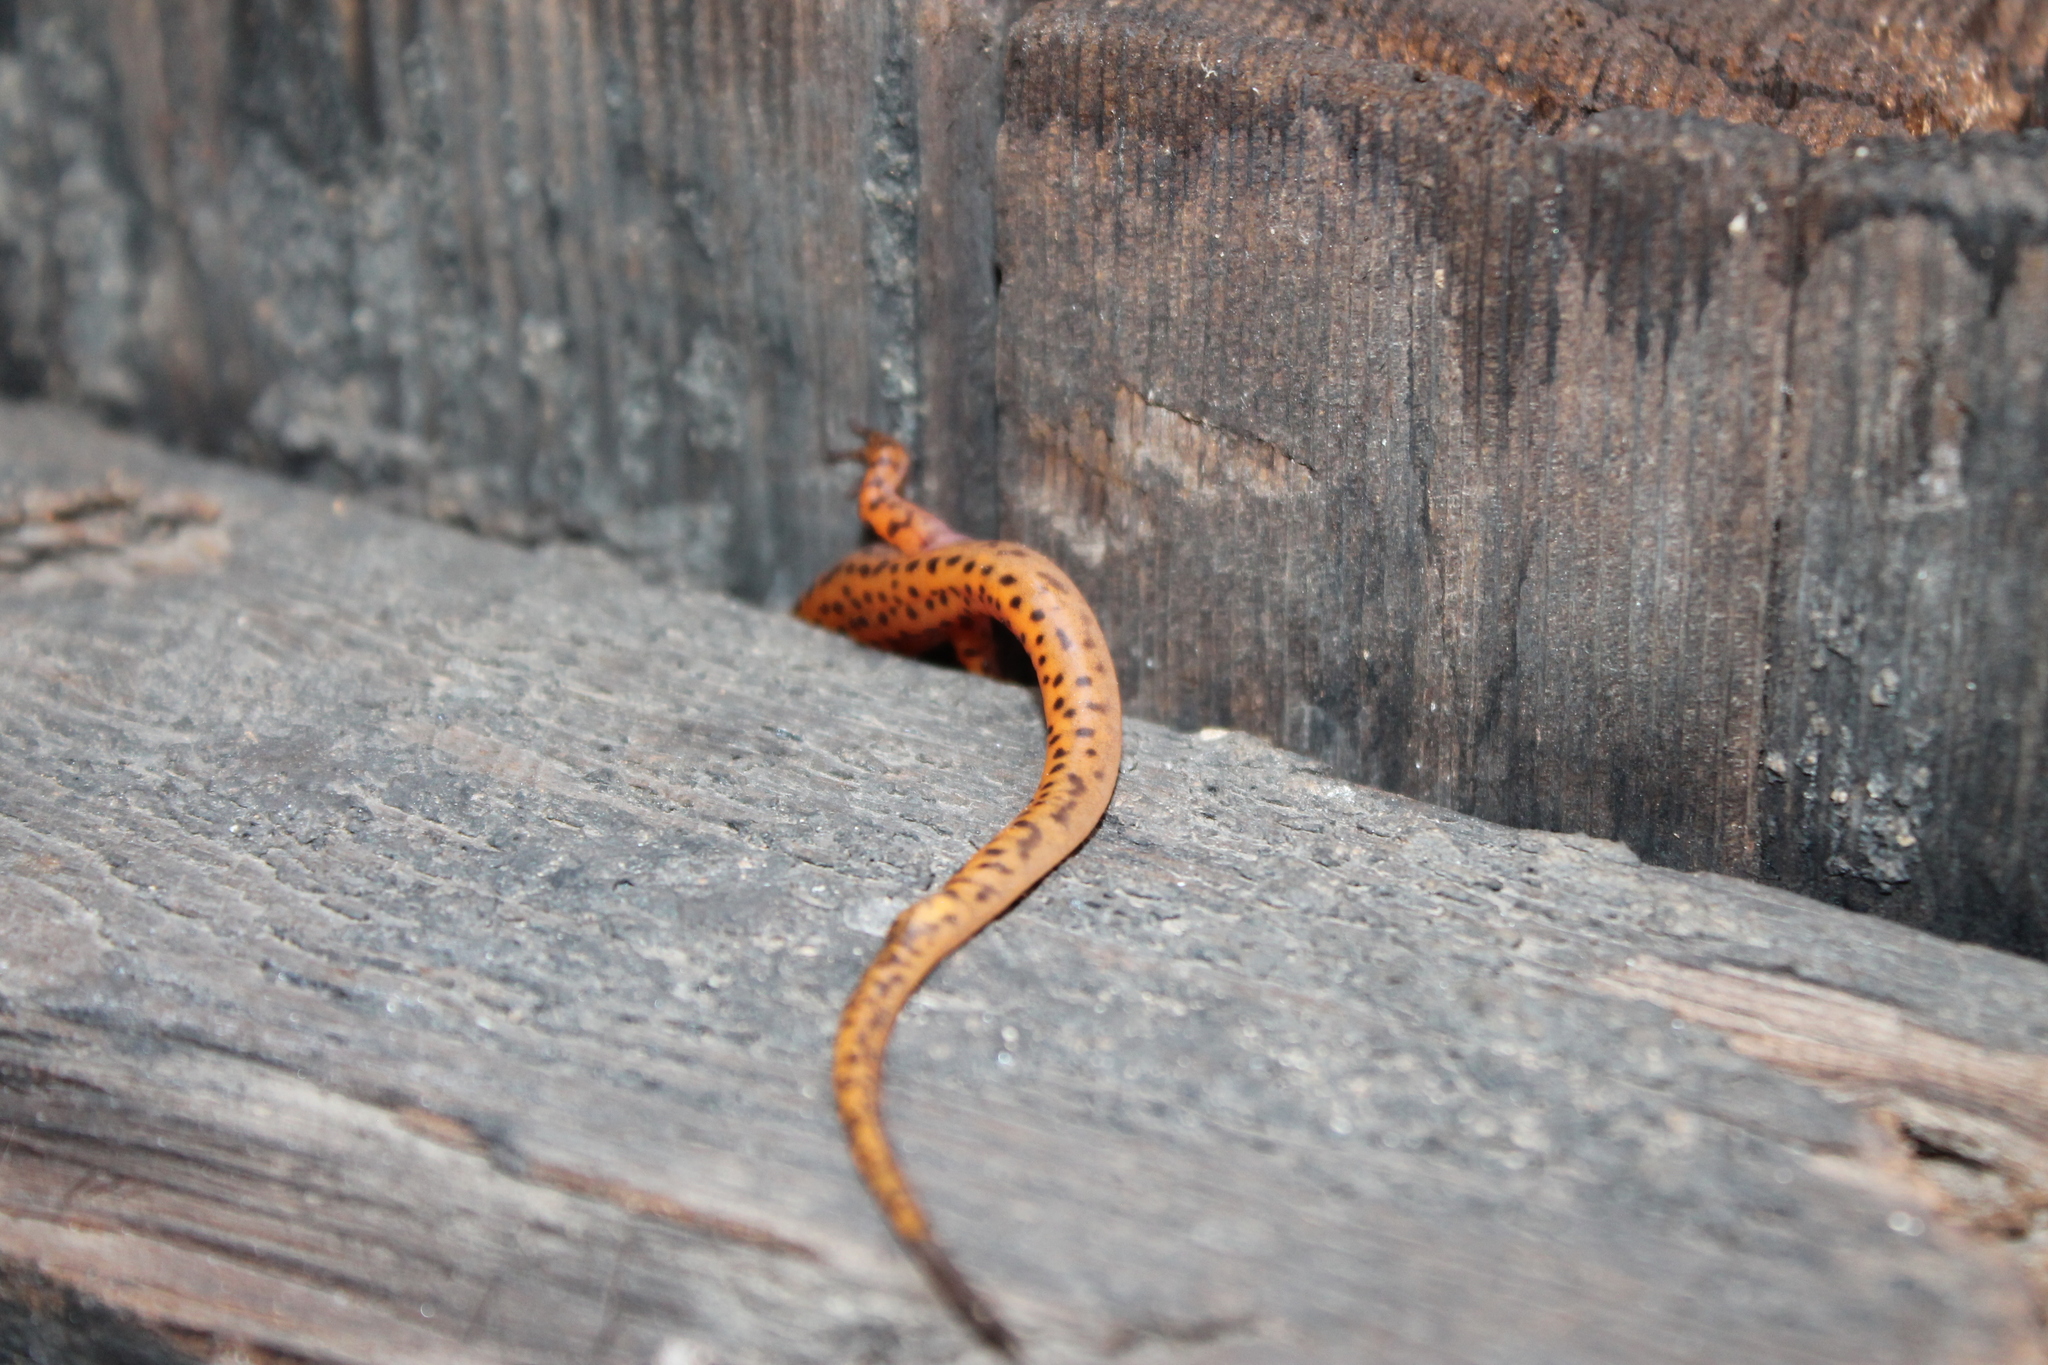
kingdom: Animalia
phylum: Chordata
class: Amphibia
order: Caudata
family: Plethodontidae
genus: Eurycea
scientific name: Eurycea lucifuga
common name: Cave salamander
